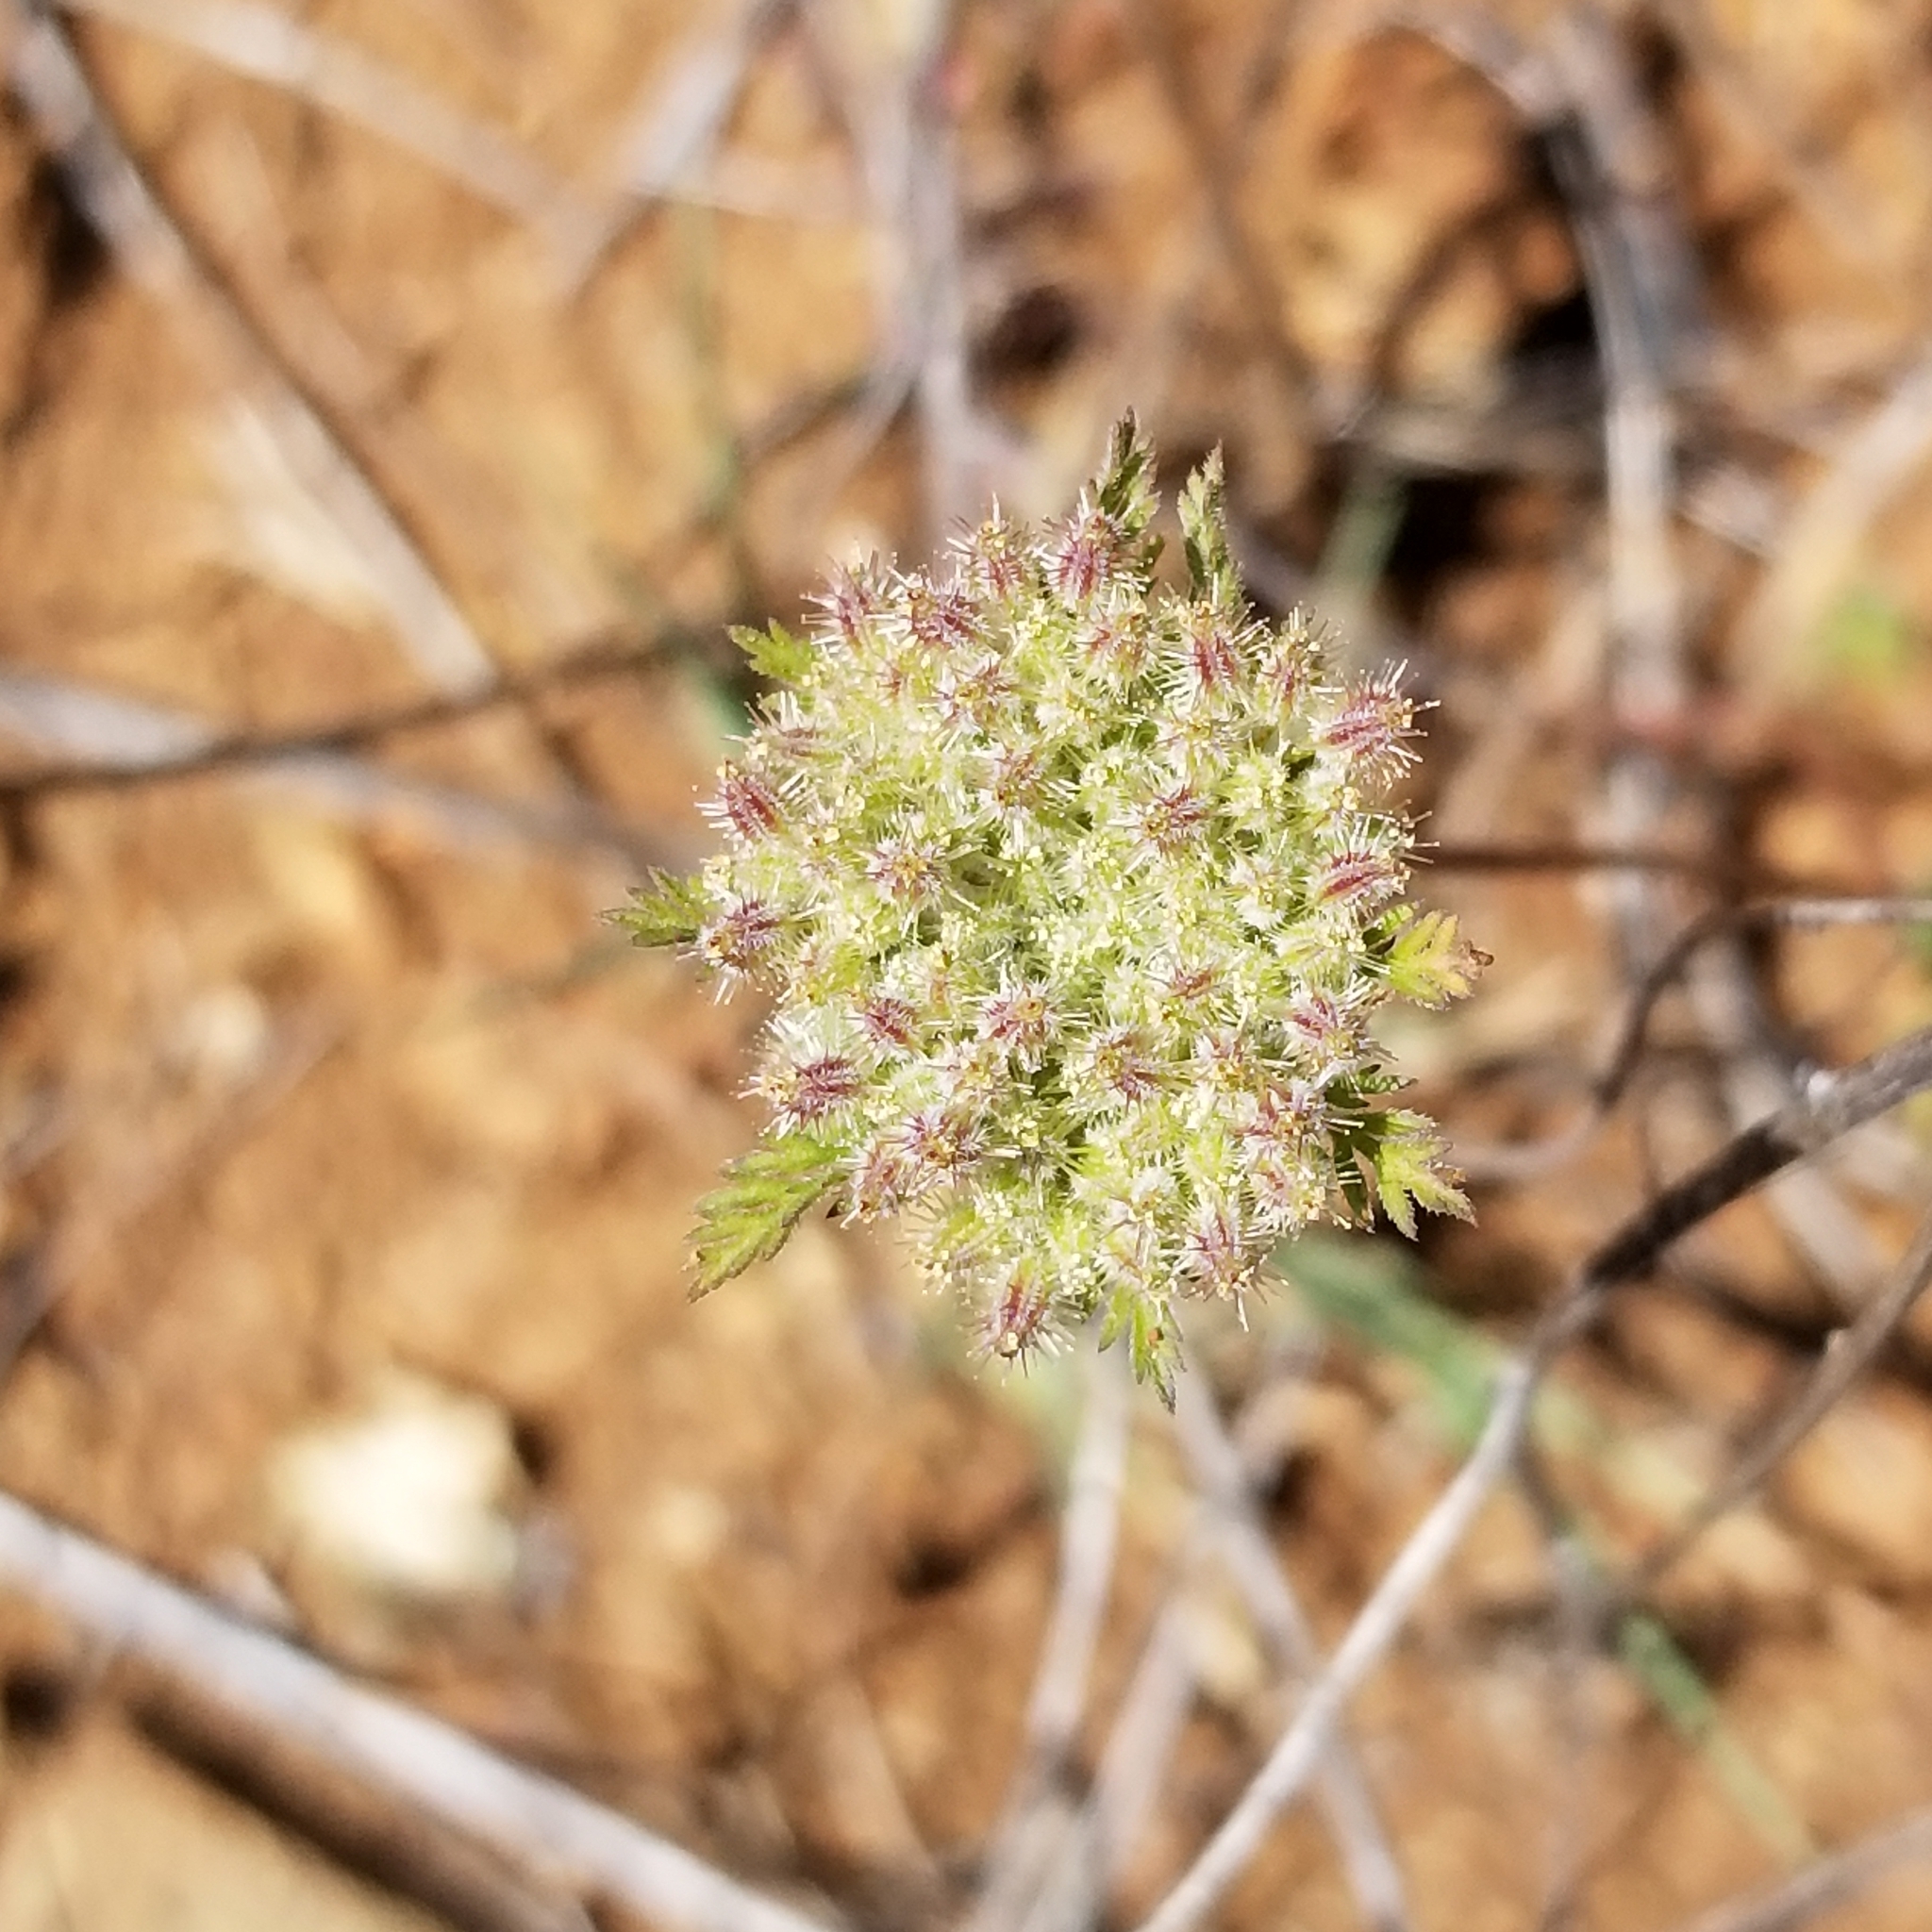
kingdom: Plantae
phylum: Tracheophyta
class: Magnoliopsida
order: Apiales
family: Apiaceae
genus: Daucus
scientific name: Daucus pusillus
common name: Southwest wild carrot
